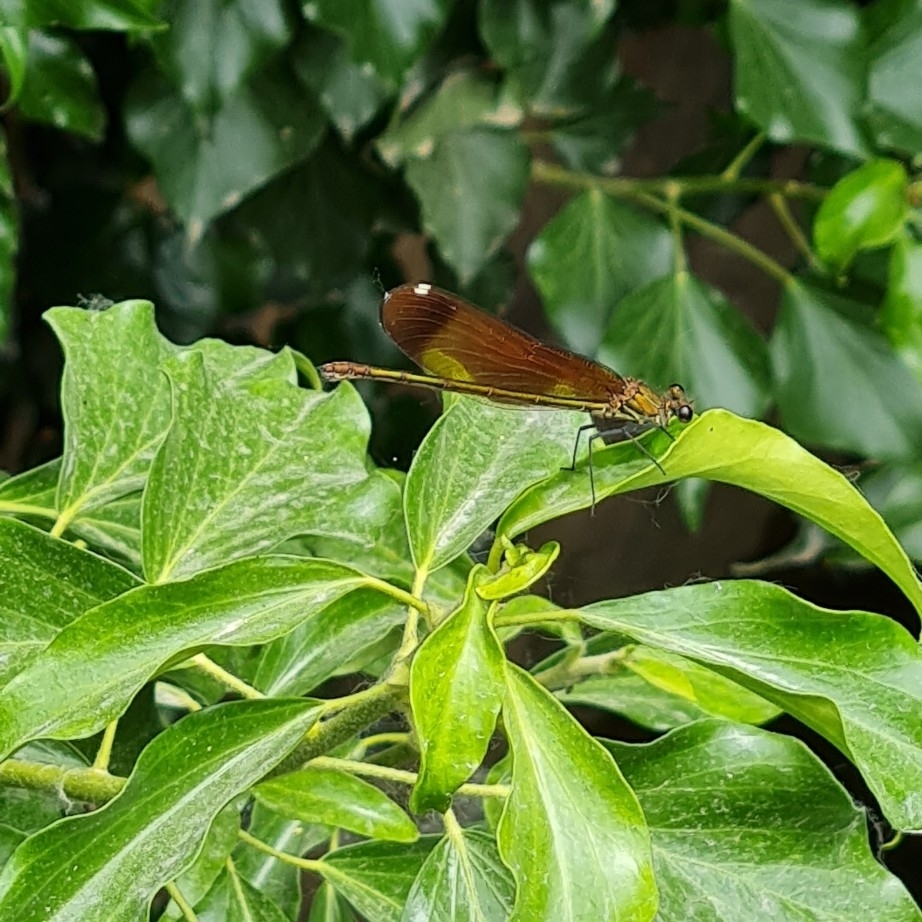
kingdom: Animalia
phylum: Arthropoda
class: Insecta
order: Odonata
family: Calopterygidae
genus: Calopteryx
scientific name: Calopteryx haemorrhoidalis
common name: Copper demoiselle
